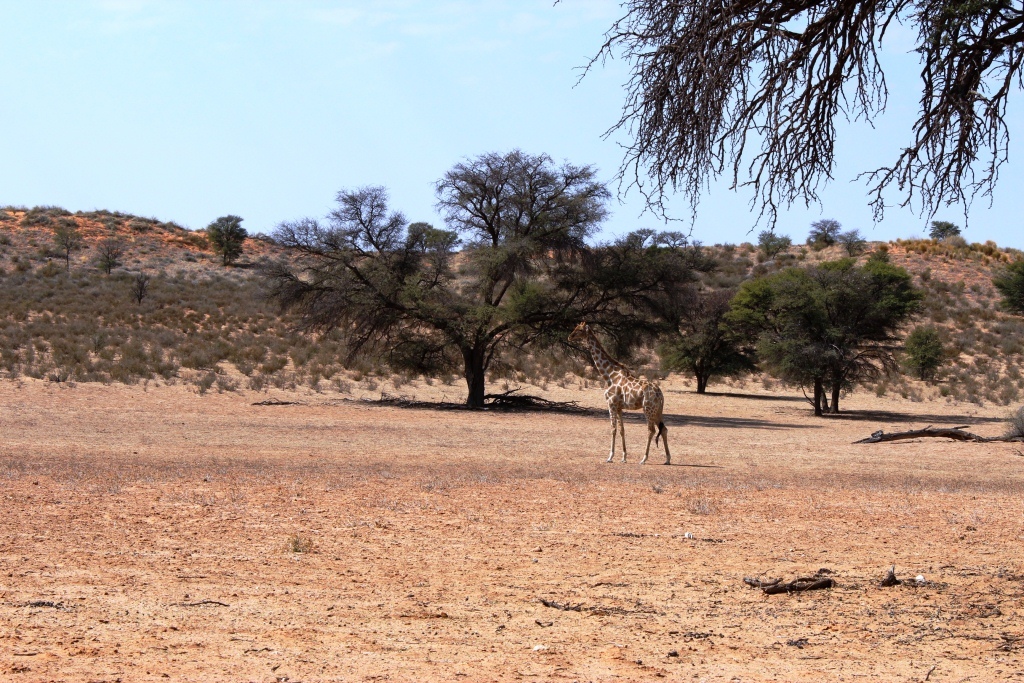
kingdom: Plantae
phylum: Tracheophyta
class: Magnoliopsida
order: Fabales
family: Fabaceae
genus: Vachellia
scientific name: Vachellia erioloba
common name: Camel thorn
